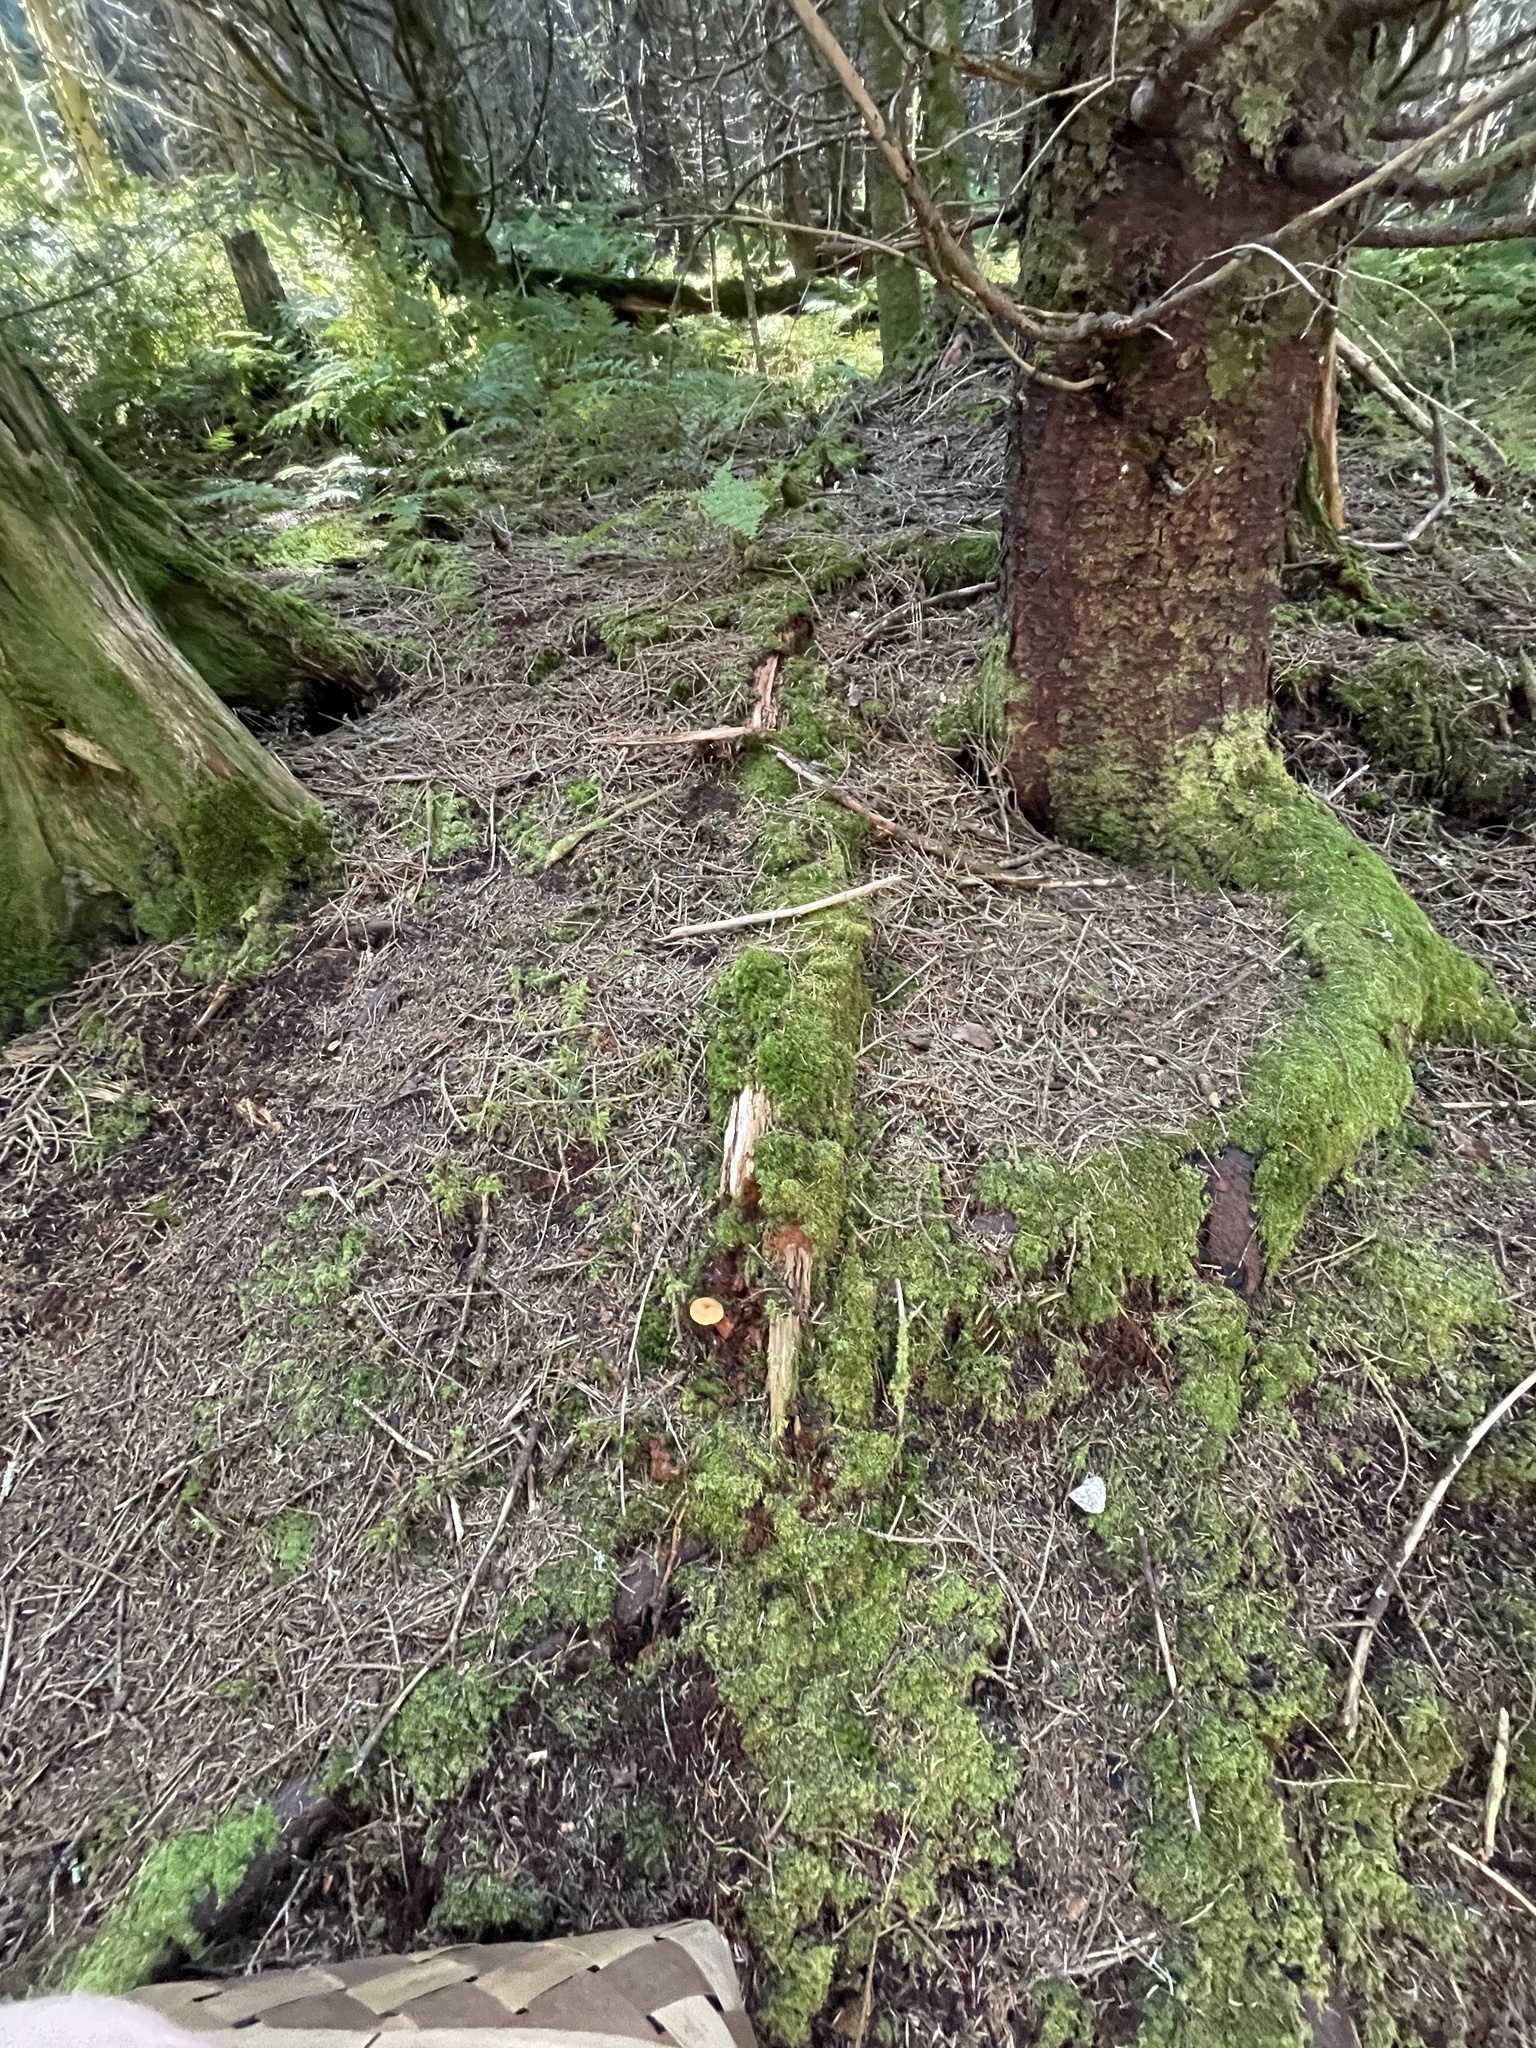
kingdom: Fungi
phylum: Basidiomycota
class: Agaricomycetes
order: Cantharellales
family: Hydnaceae
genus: Hydnum
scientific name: Hydnum umbilicatum
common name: Umbilicate hedgehog
